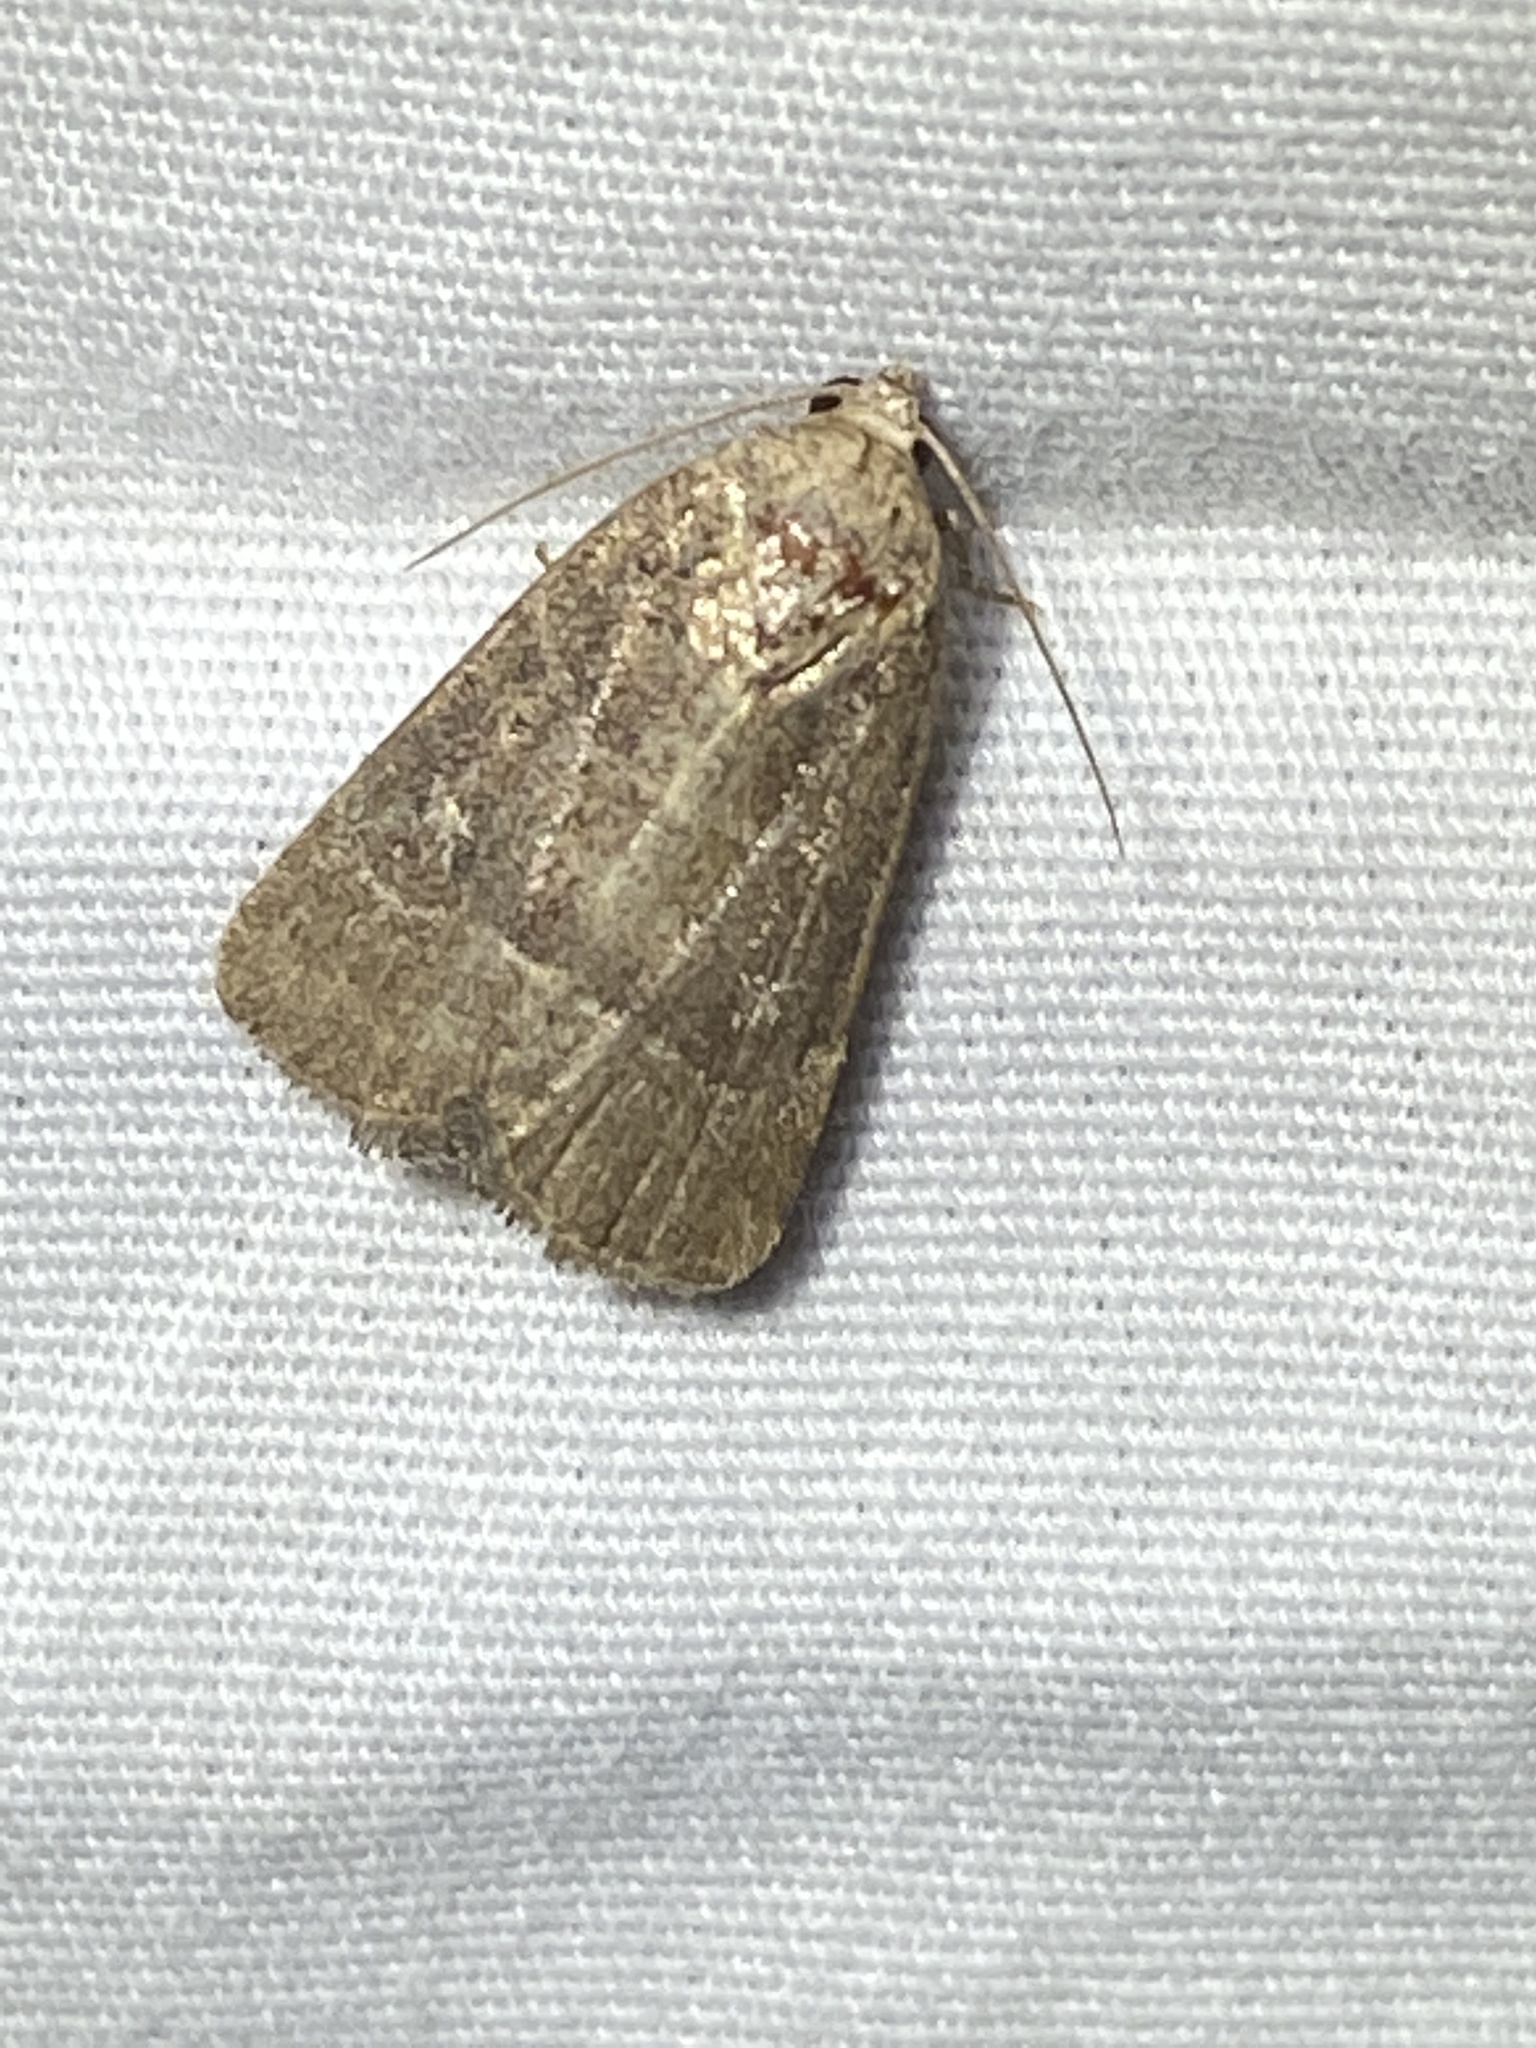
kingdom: Animalia
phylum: Arthropoda
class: Insecta
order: Lepidoptera
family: Noctuidae
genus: Elaphria
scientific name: Elaphria grata
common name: Grateful midget moth
